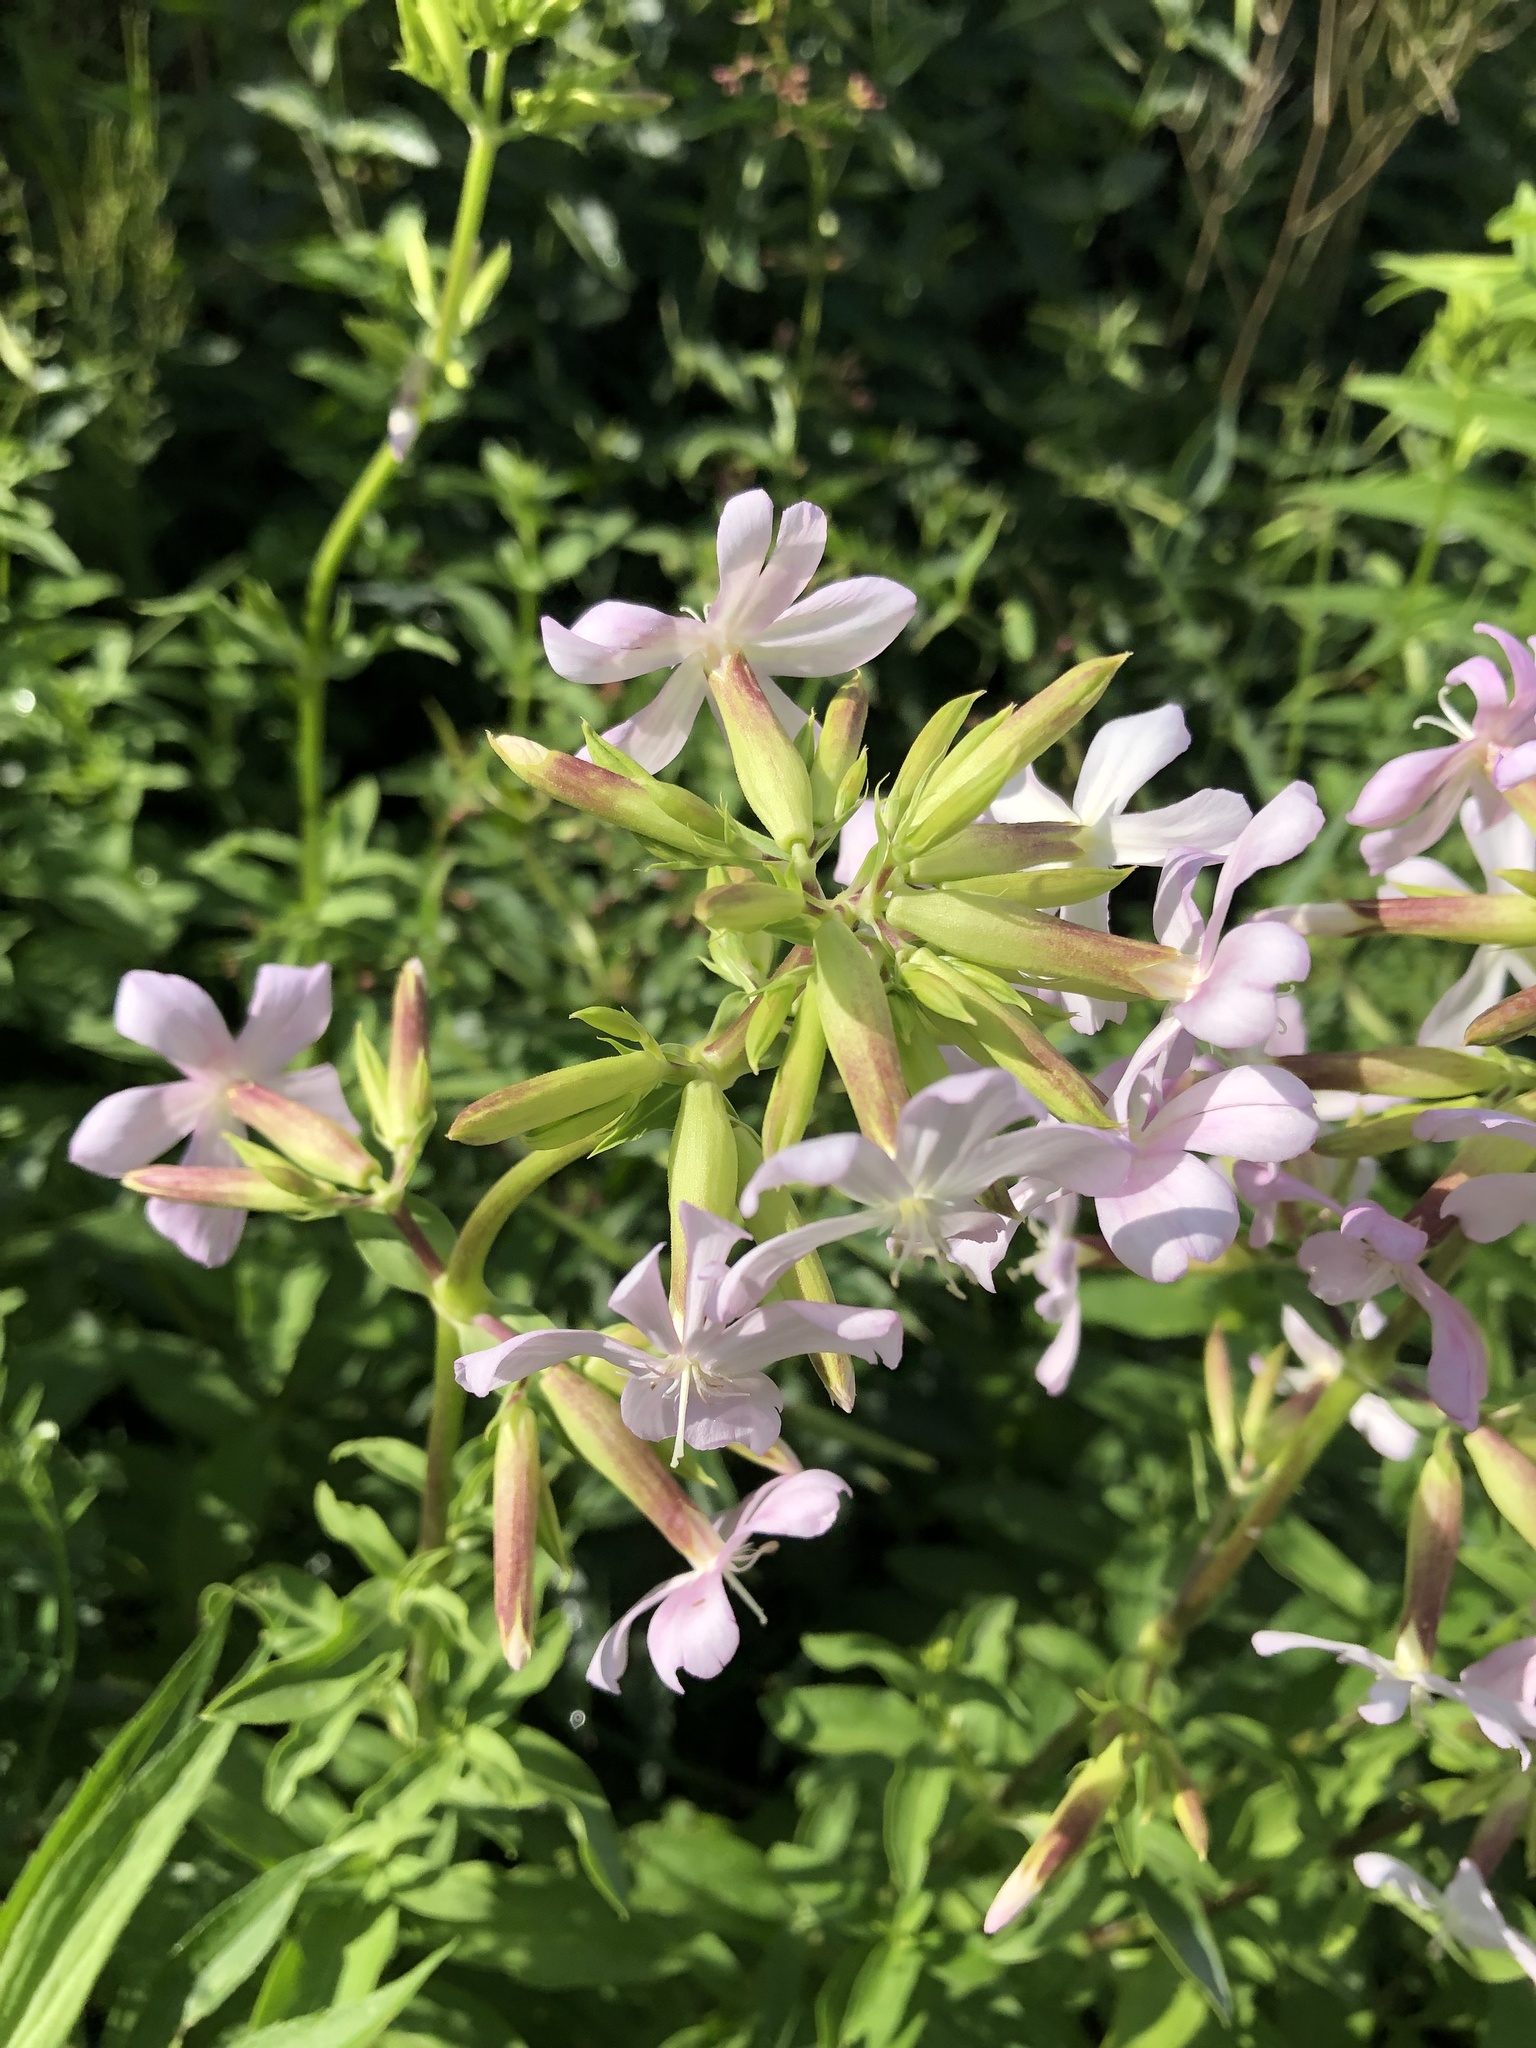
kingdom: Plantae
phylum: Tracheophyta
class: Magnoliopsida
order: Caryophyllales
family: Caryophyllaceae
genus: Saponaria
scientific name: Saponaria officinalis
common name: Soapwort
